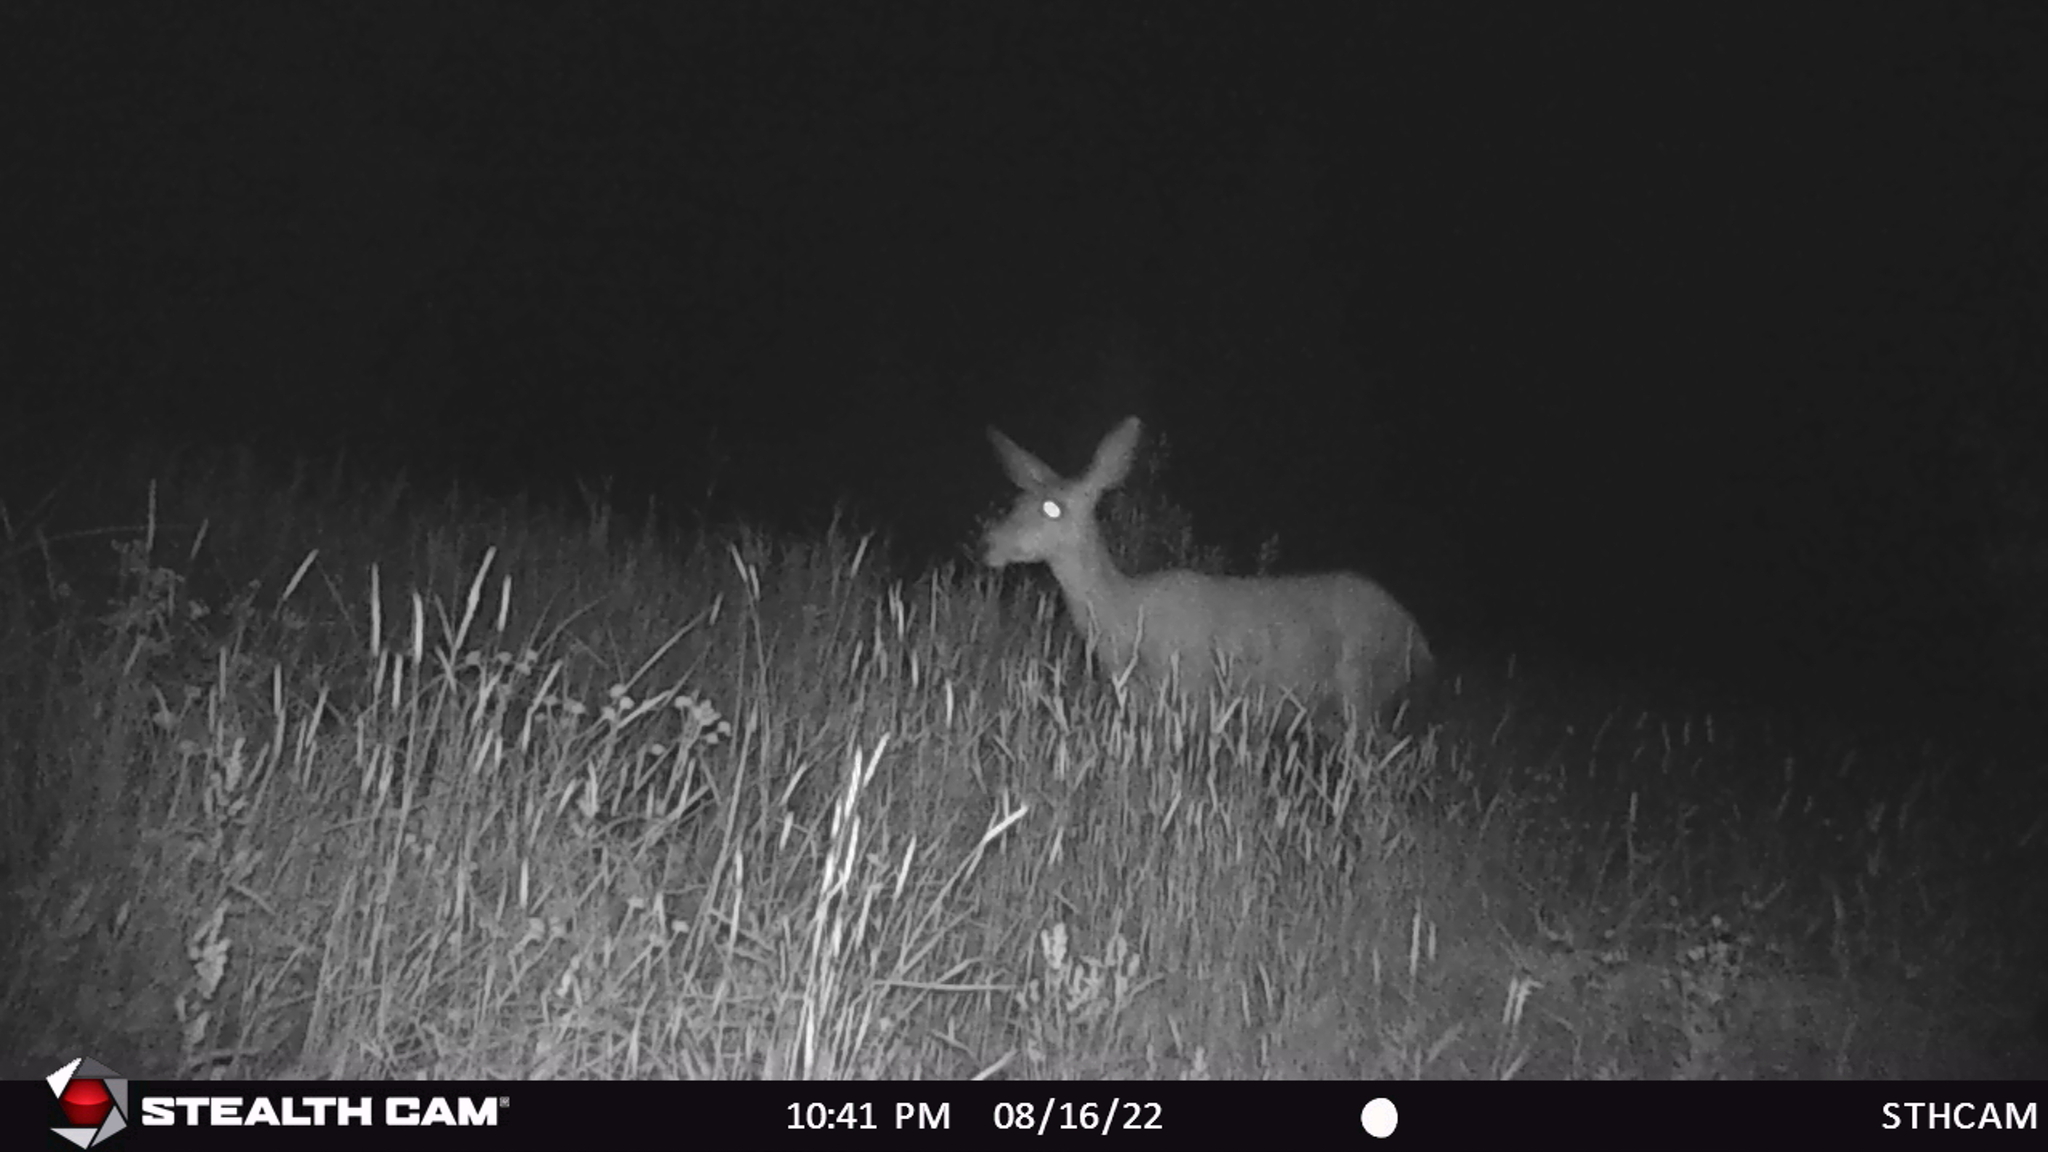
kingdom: Animalia
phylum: Chordata
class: Mammalia
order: Artiodactyla
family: Cervidae
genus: Odocoileus
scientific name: Odocoileus hemionus
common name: Mule deer
